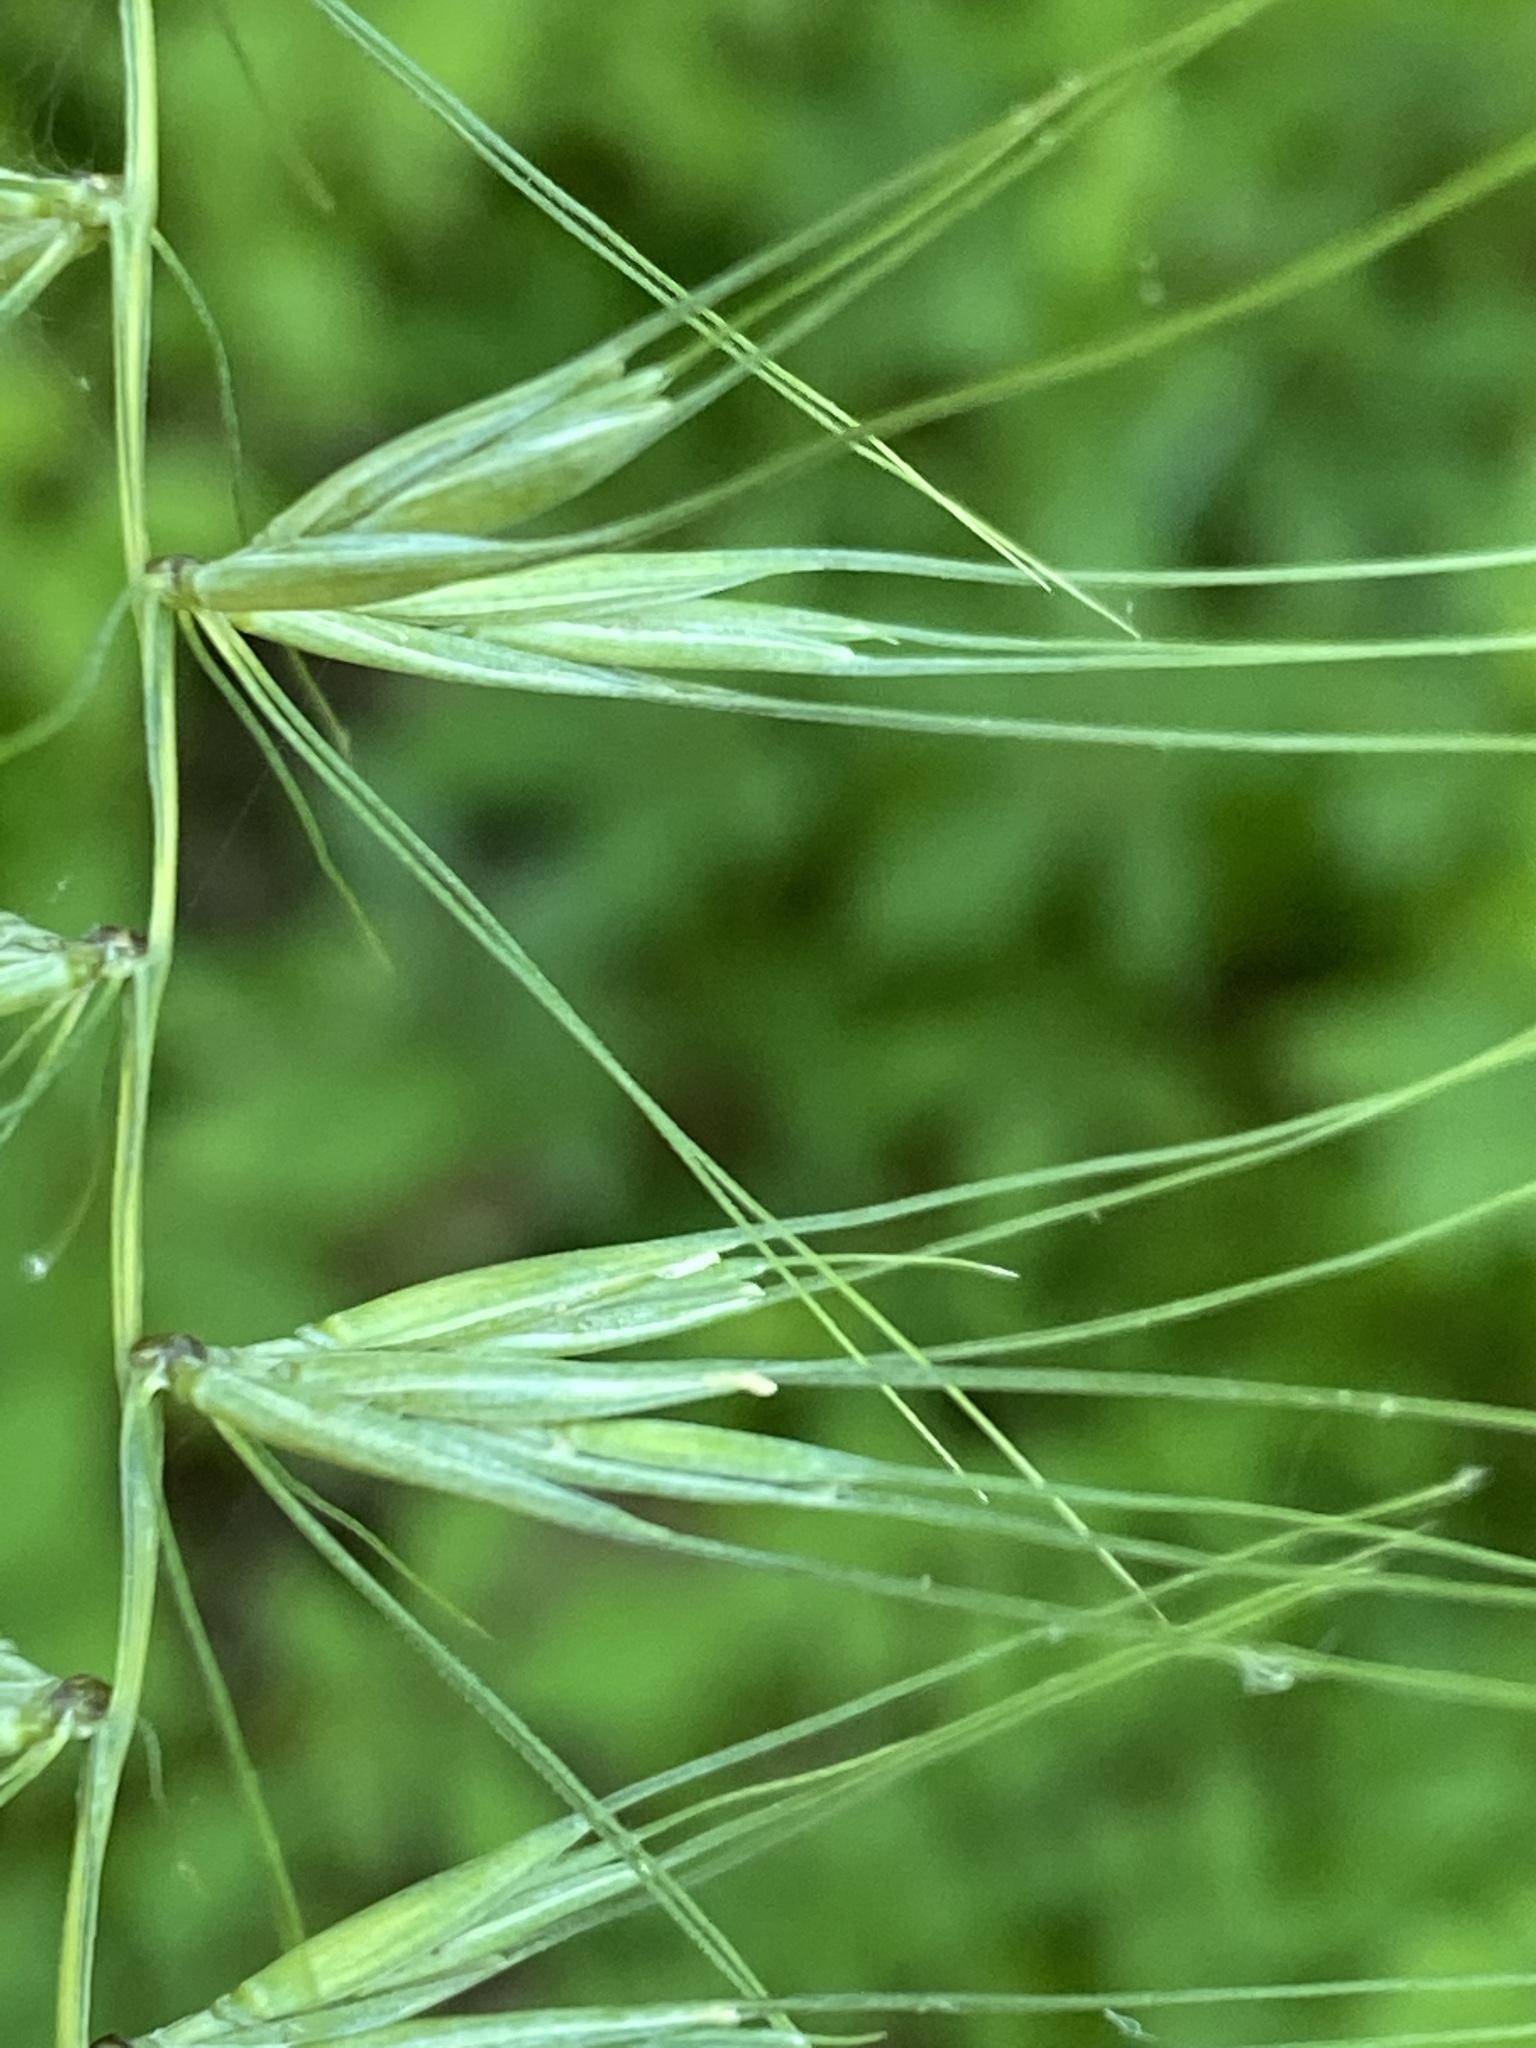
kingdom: Plantae
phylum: Tracheophyta
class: Liliopsida
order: Poales
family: Poaceae
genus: Elymus
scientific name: Elymus hystrix
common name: Bottlebrush grass
